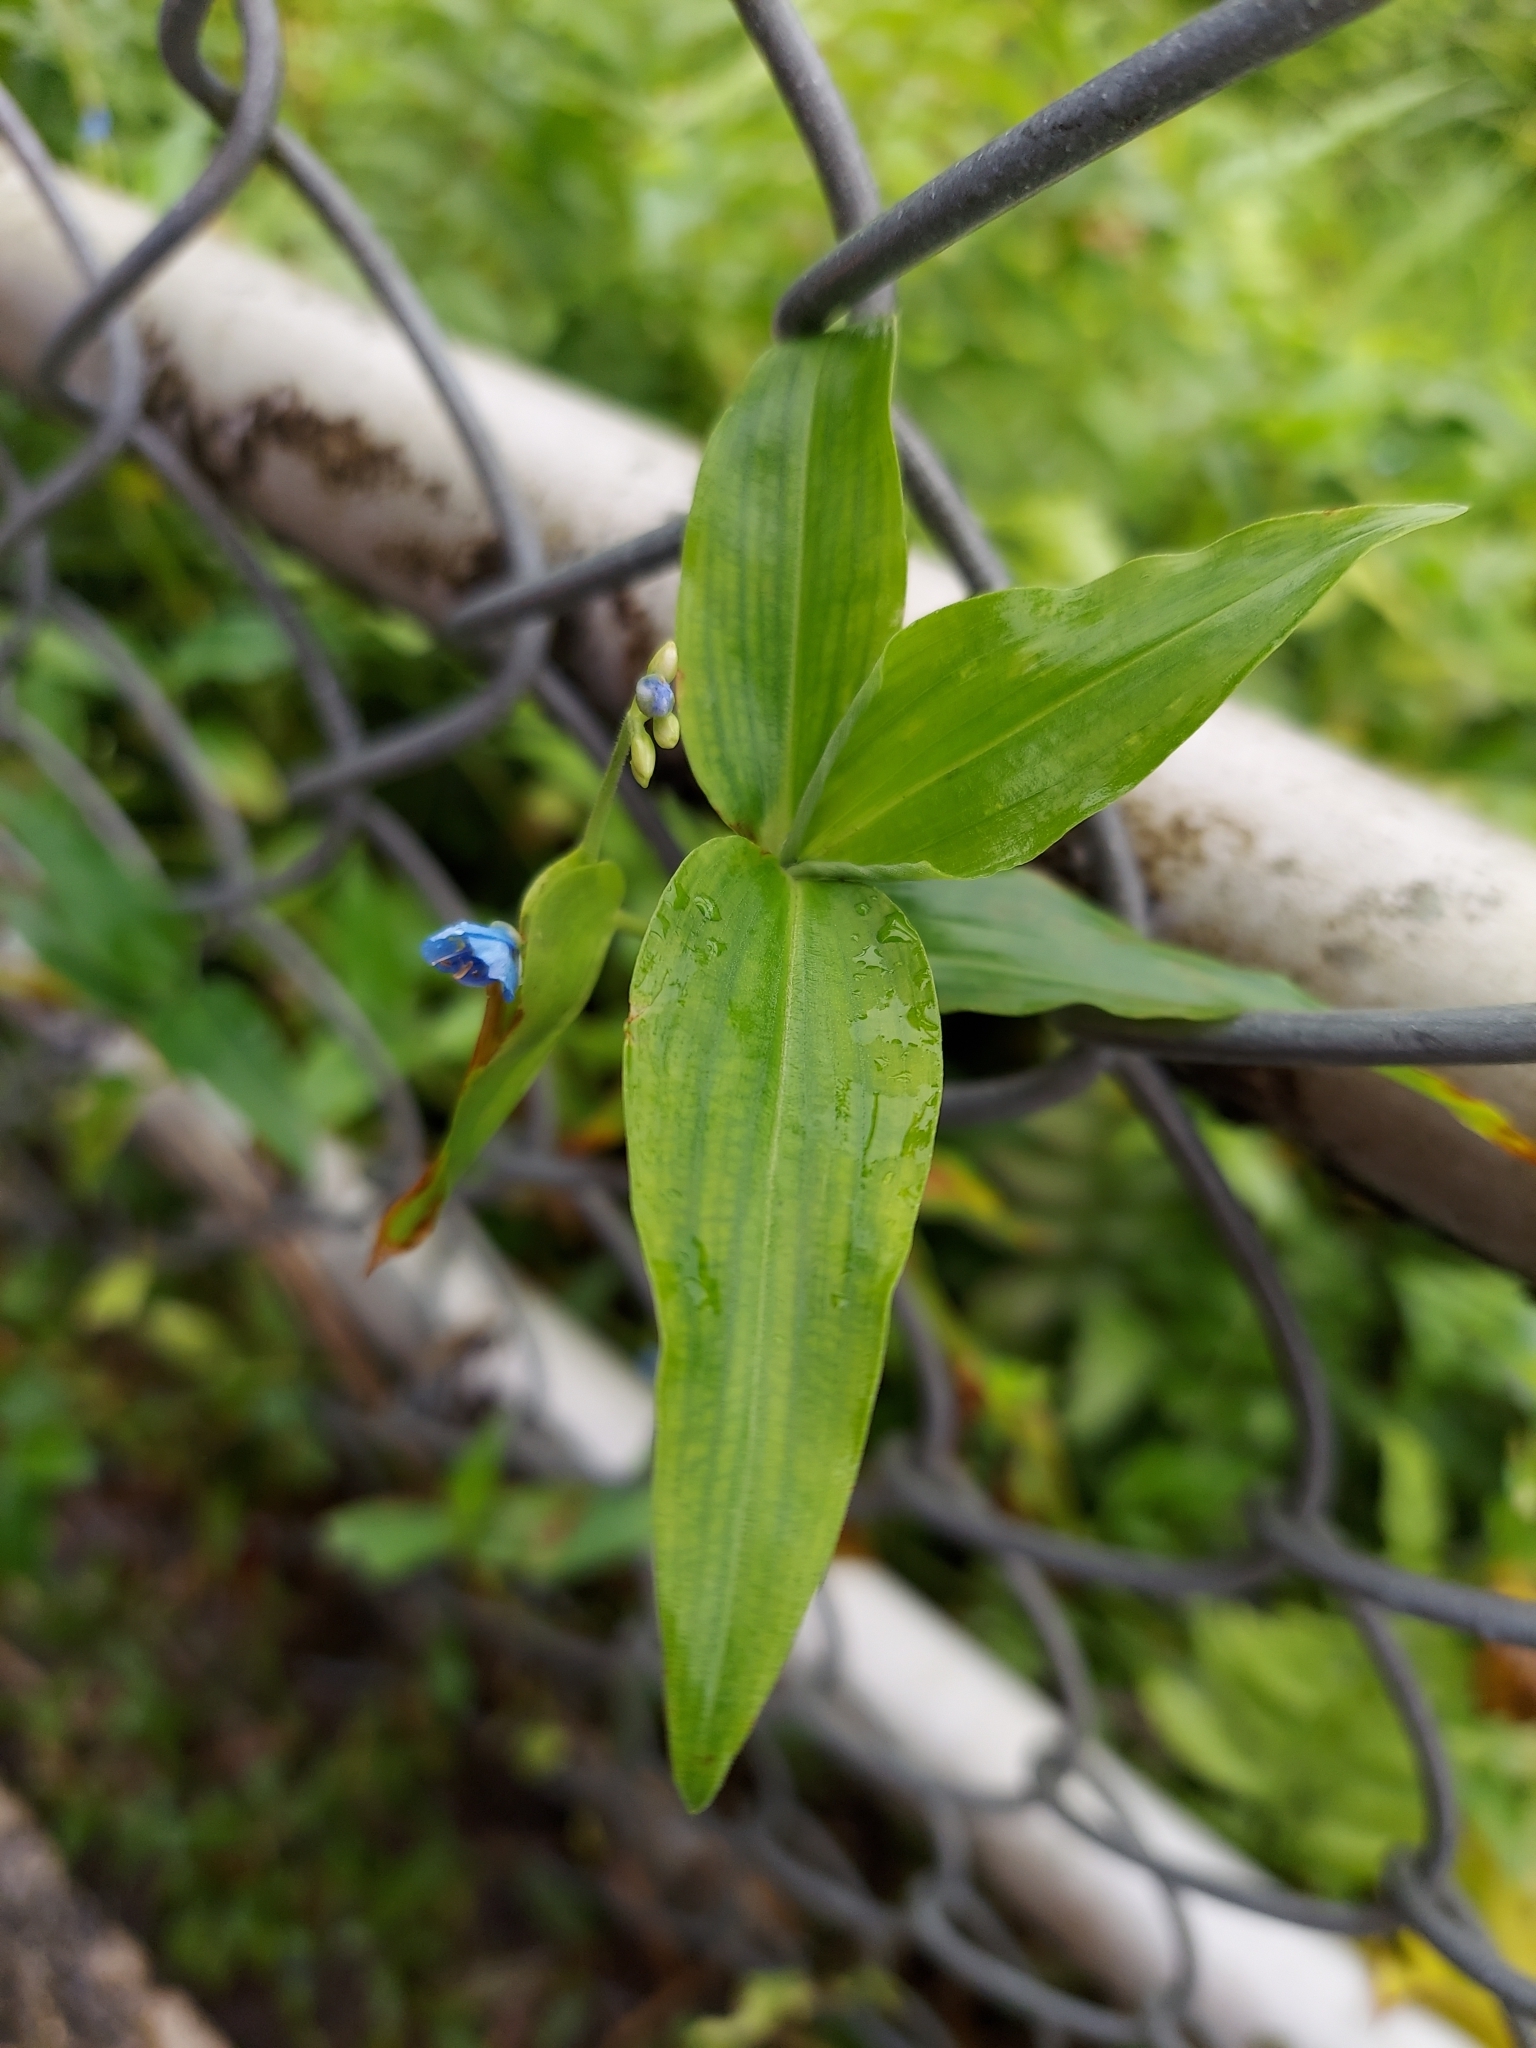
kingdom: Plantae
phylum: Tracheophyta
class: Liliopsida
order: Commelinales
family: Commelinaceae
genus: Commelina
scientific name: Commelina diffusa
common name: Climbing dayflower
